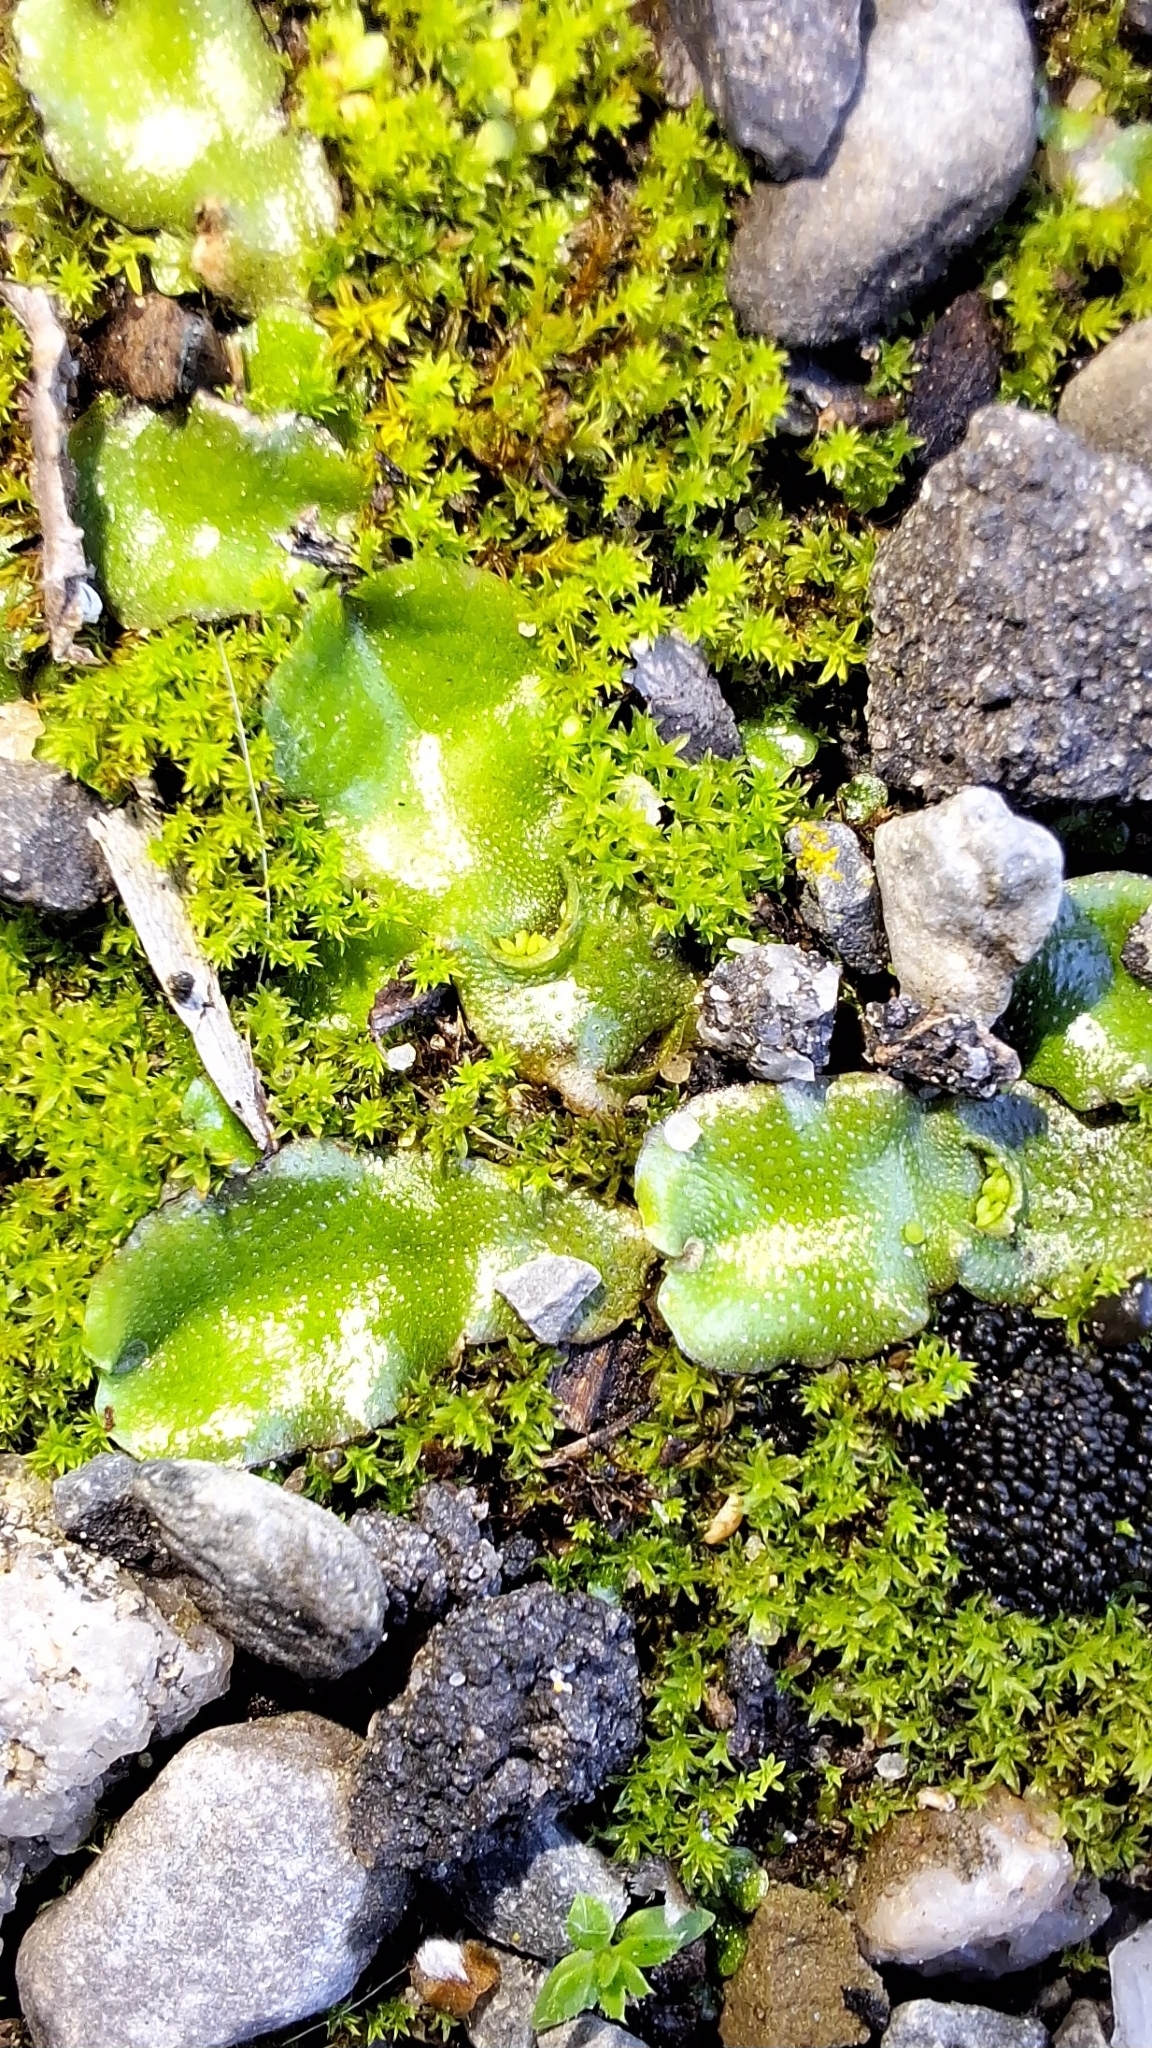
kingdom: Plantae
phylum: Marchantiophyta
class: Marchantiopsida
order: Lunulariales
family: Lunulariaceae
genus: Lunularia
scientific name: Lunularia cruciata
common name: Crescent-cup liverwort
